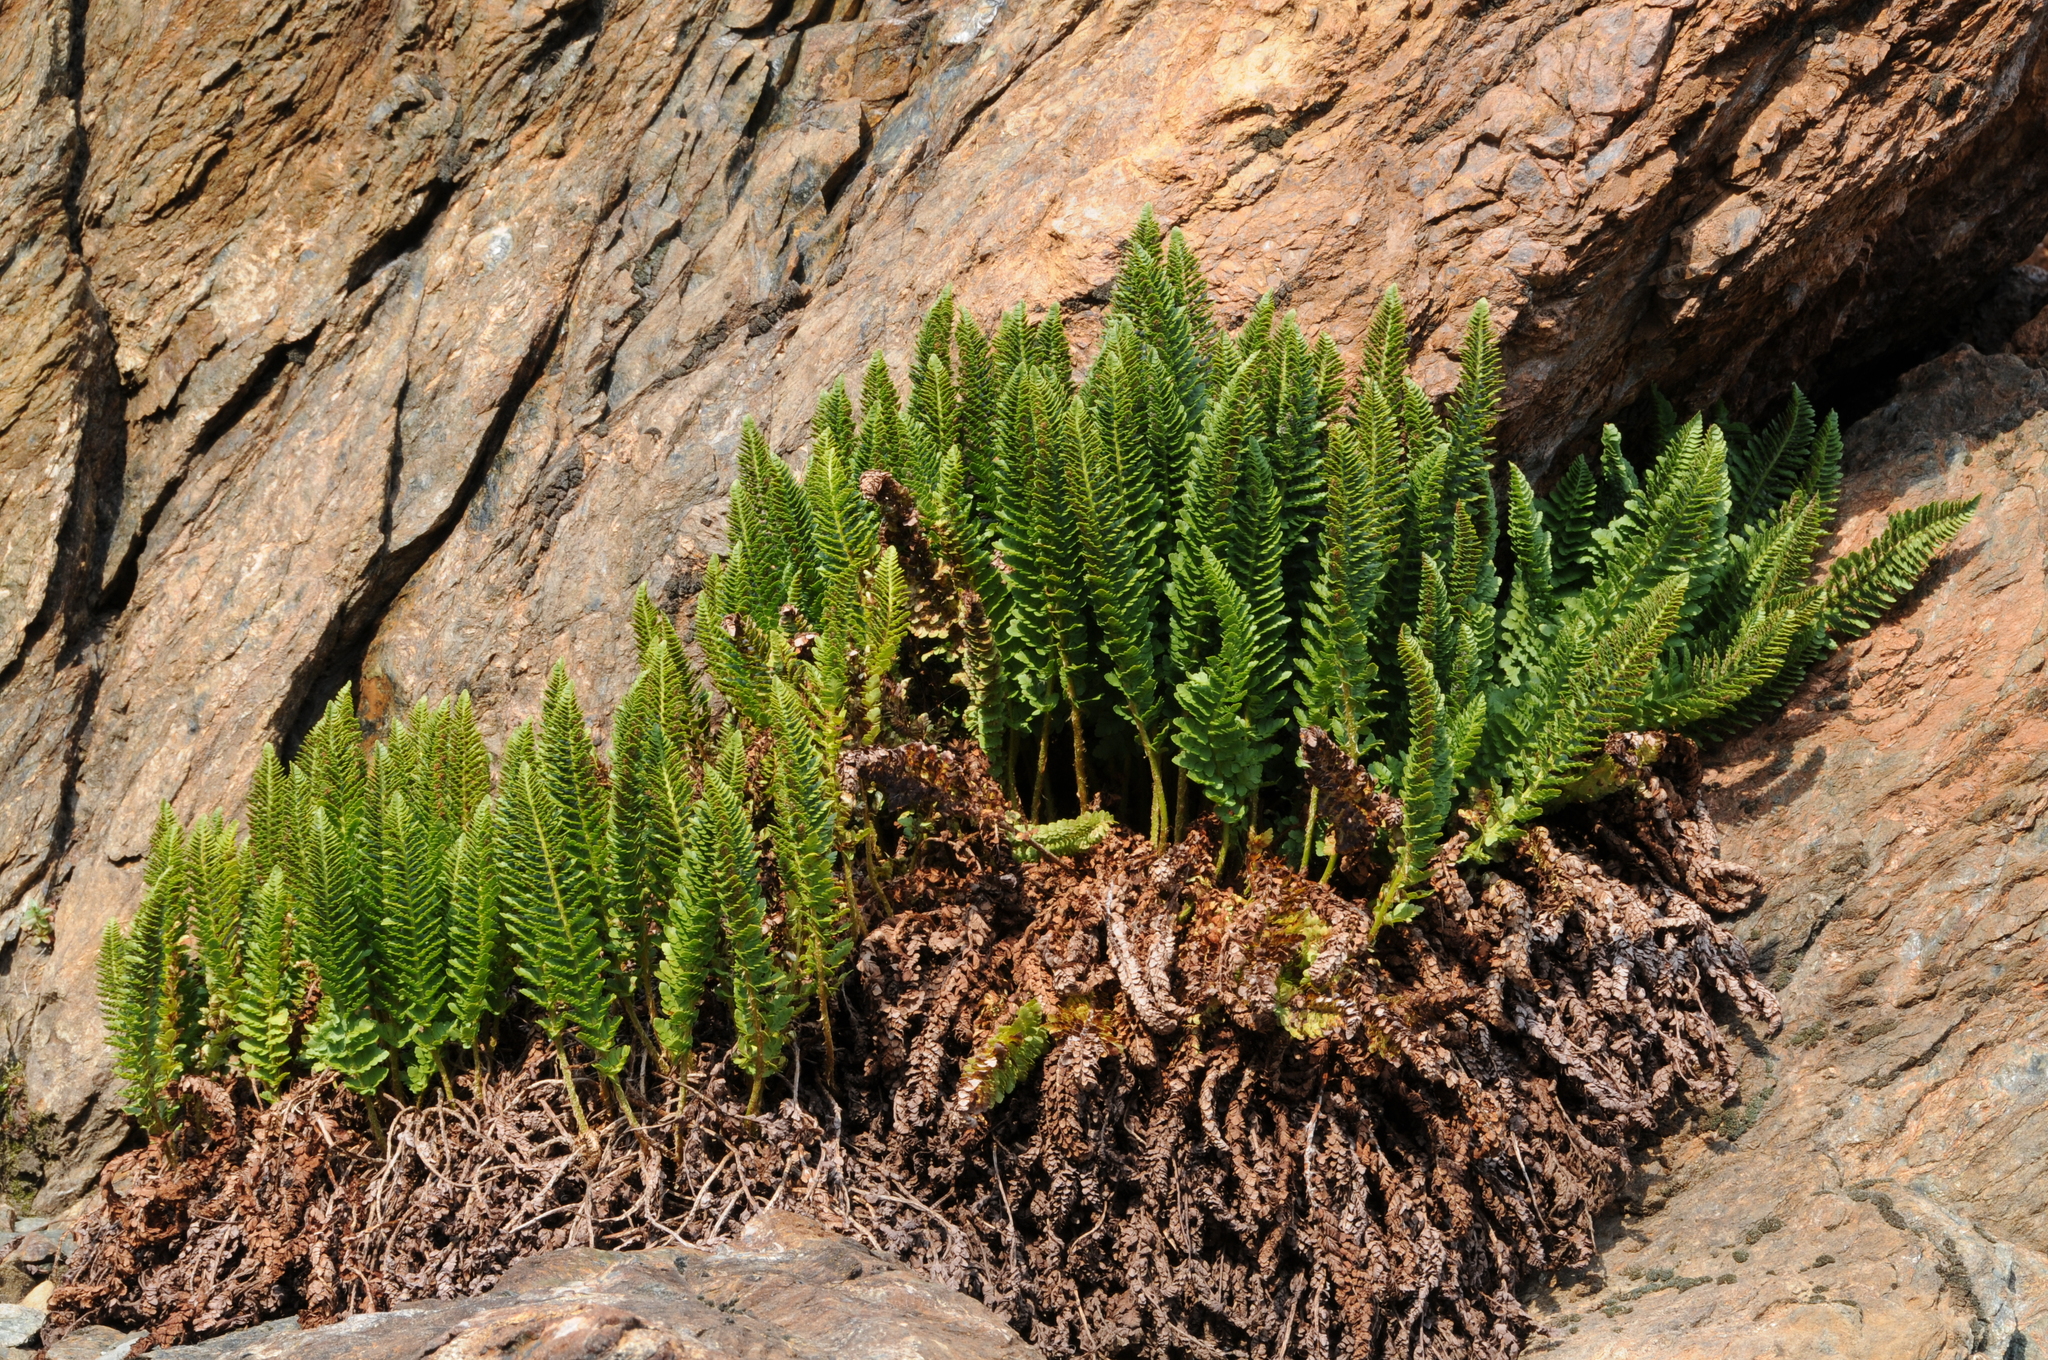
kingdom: Plantae
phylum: Tracheophyta
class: Polypodiopsida
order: Polypodiales
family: Dryopteridaceae
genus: Polystichum
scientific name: Polystichum lemmonii
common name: Lemmon's holly fern
